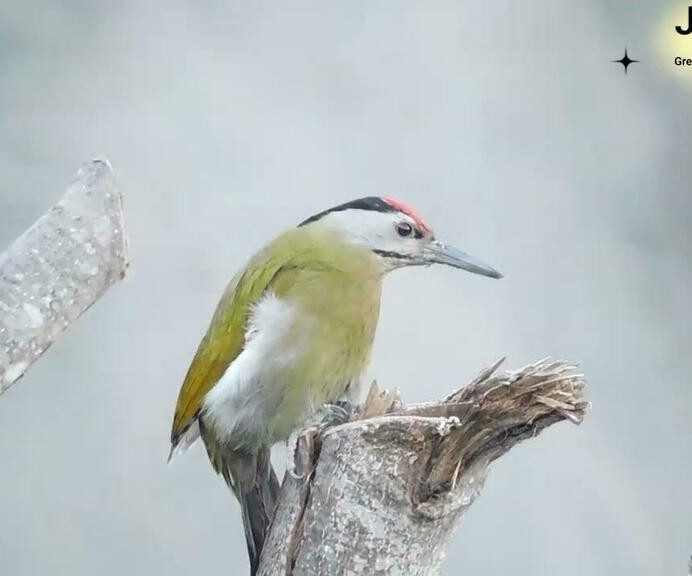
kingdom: Animalia
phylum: Chordata
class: Aves
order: Piciformes
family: Picidae
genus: Picus
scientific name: Picus canus
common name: Grey-headed woodpecker
